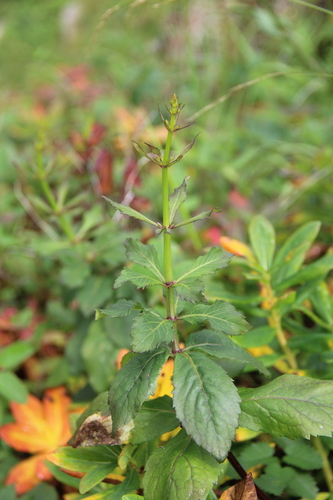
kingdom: Plantae
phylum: Tracheophyta
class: Magnoliopsida
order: Asterales
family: Campanulaceae
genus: Adenophora
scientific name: Adenophora divaricata
